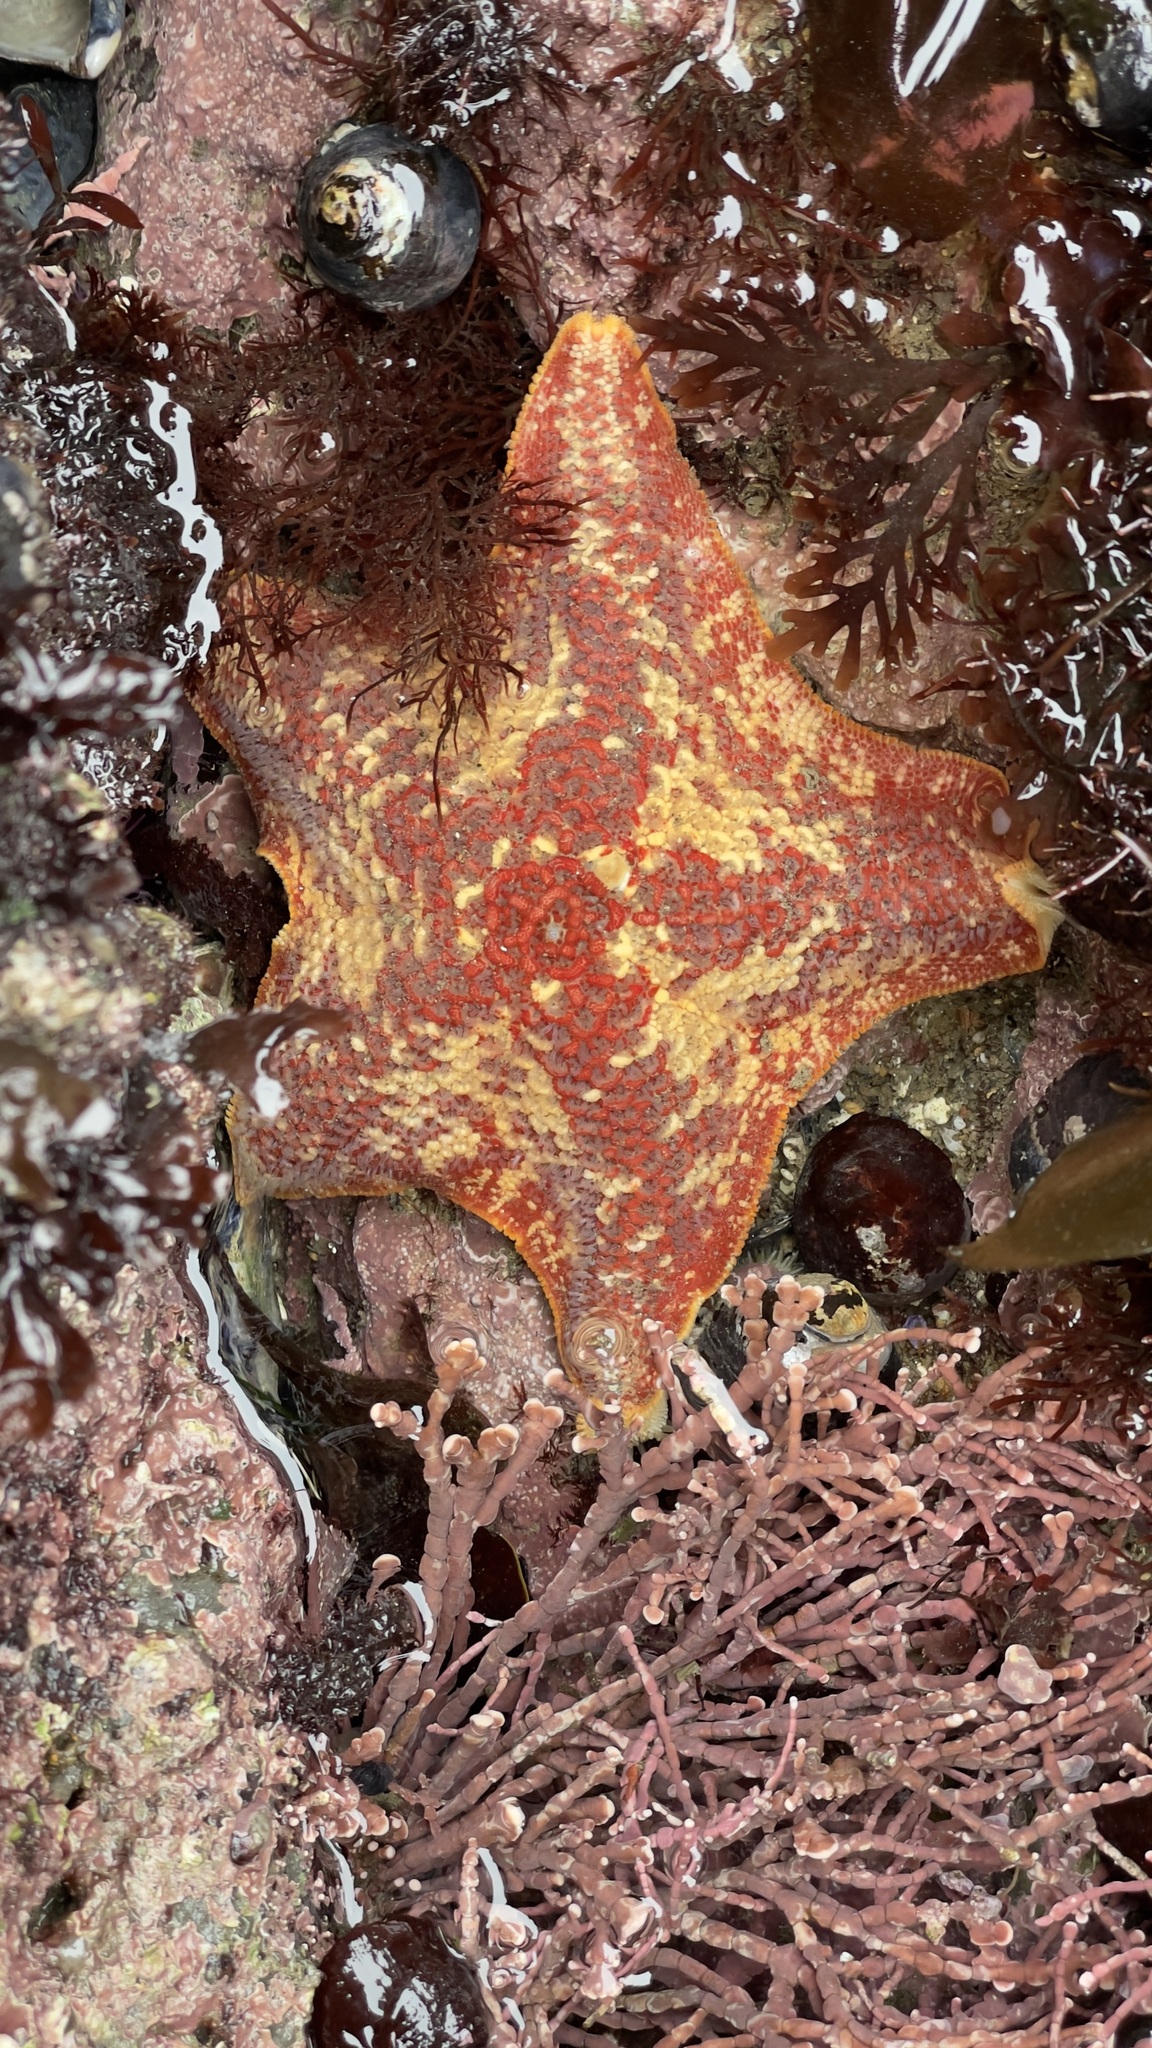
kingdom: Animalia
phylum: Echinodermata
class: Asteroidea
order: Valvatida
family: Asterinidae
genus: Patiria
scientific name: Patiria miniata
